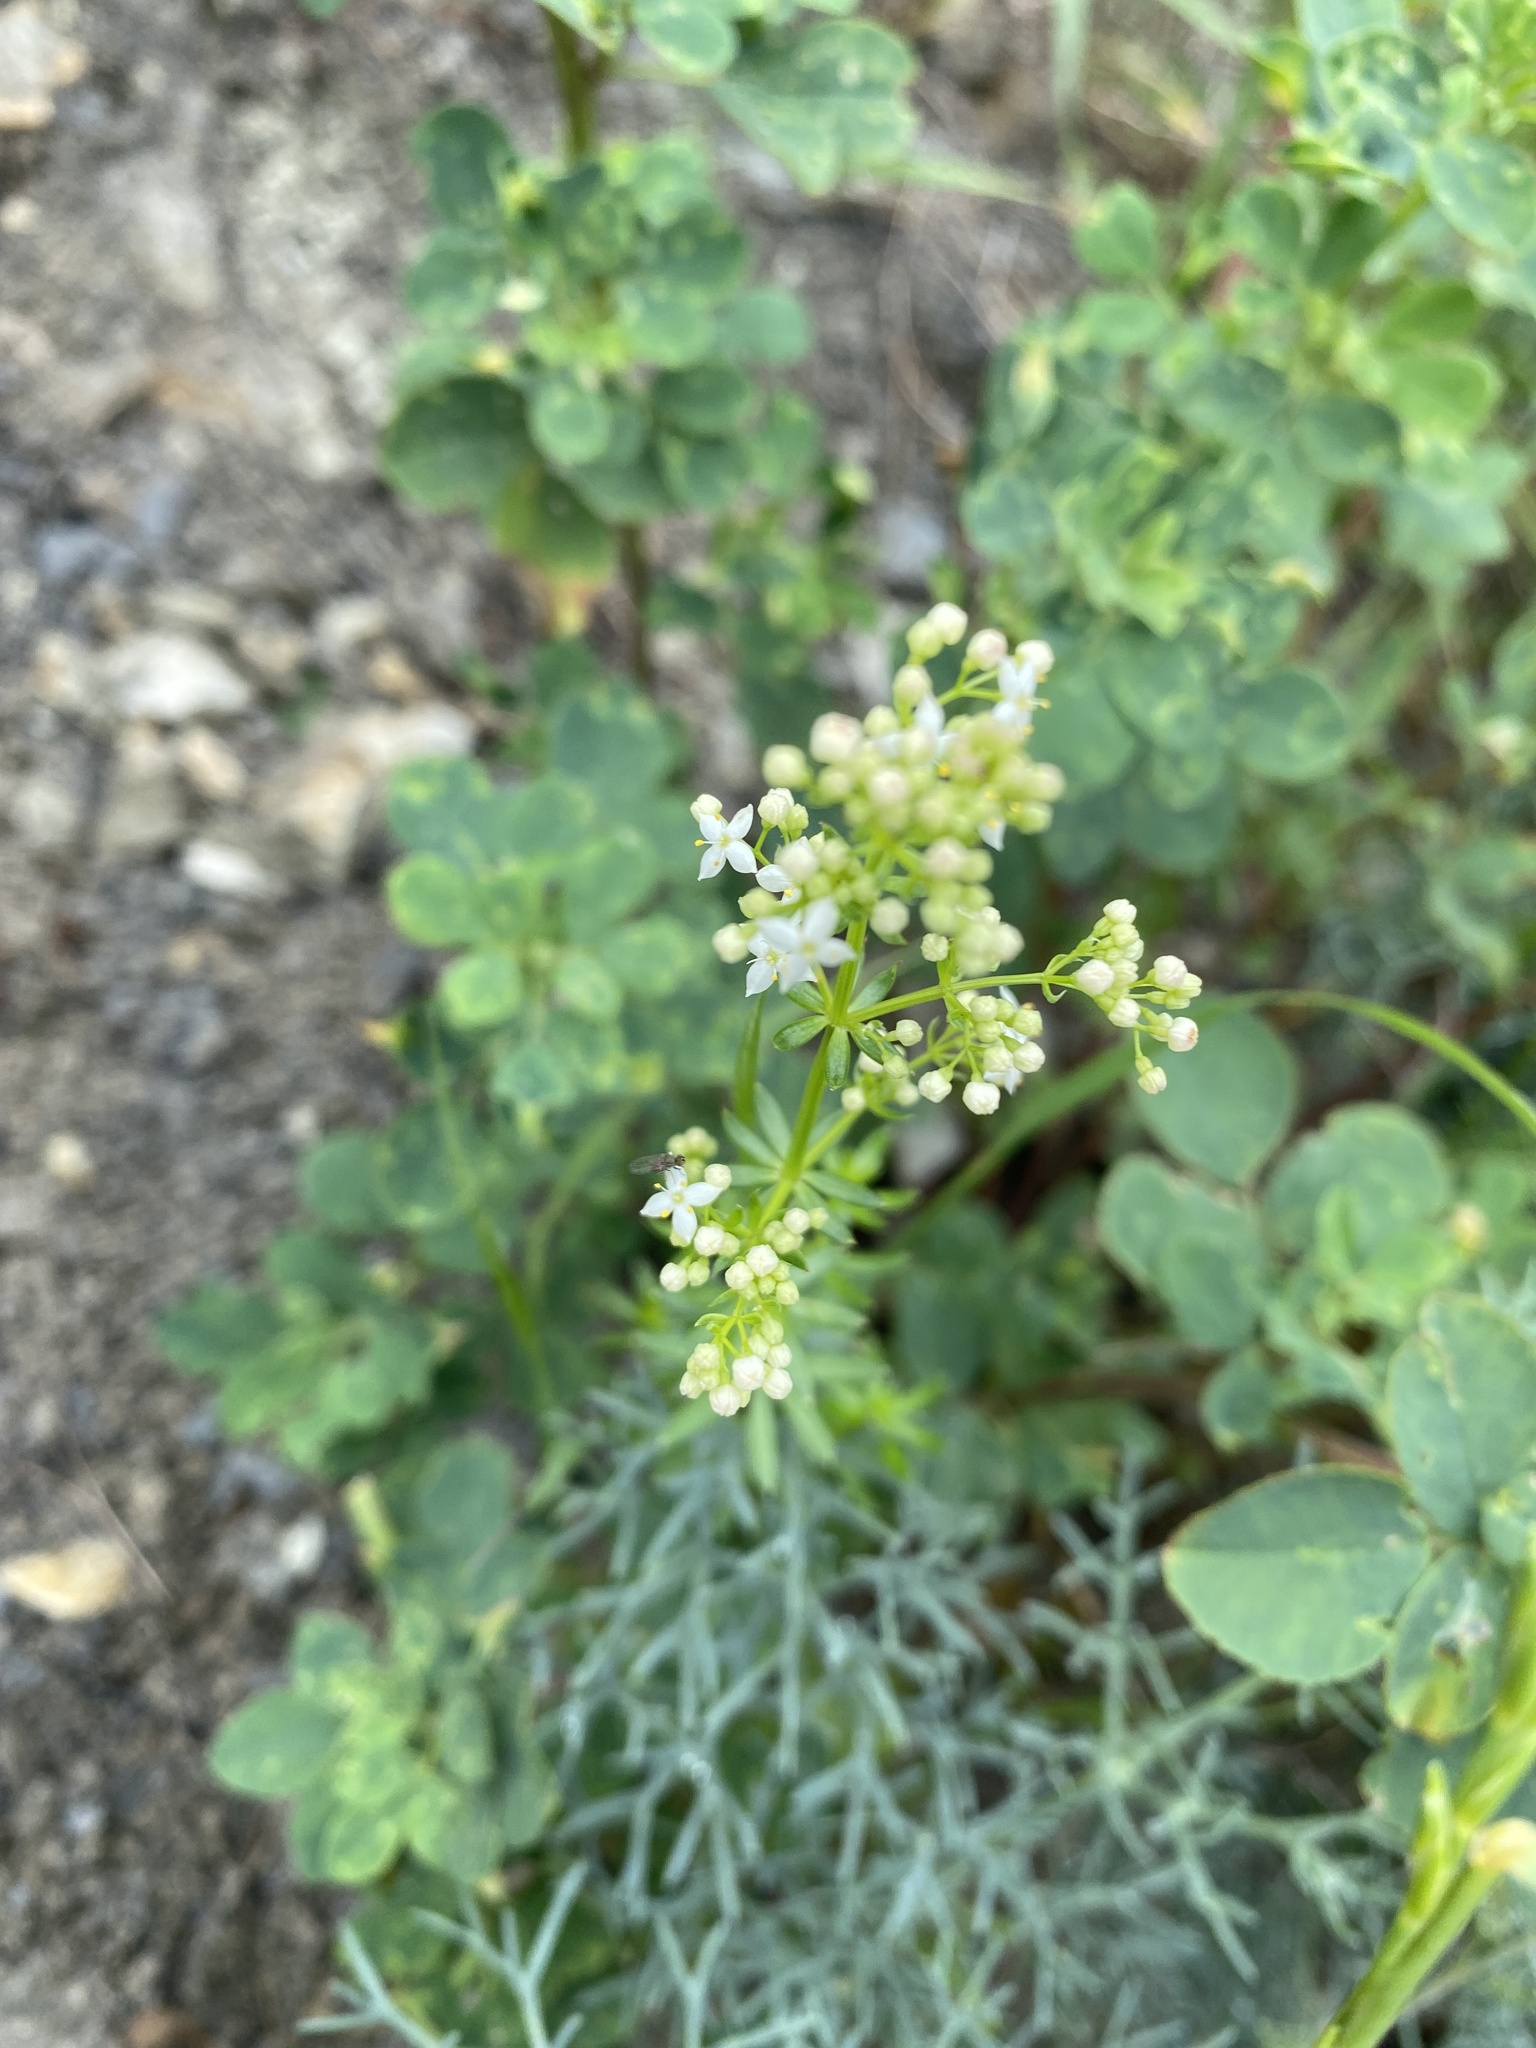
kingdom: Plantae
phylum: Tracheophyta
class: Magnoliopsida
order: Gentianales
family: Rubiaceae
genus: Galium
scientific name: Galium mollugo
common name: Hedge bedstraw
